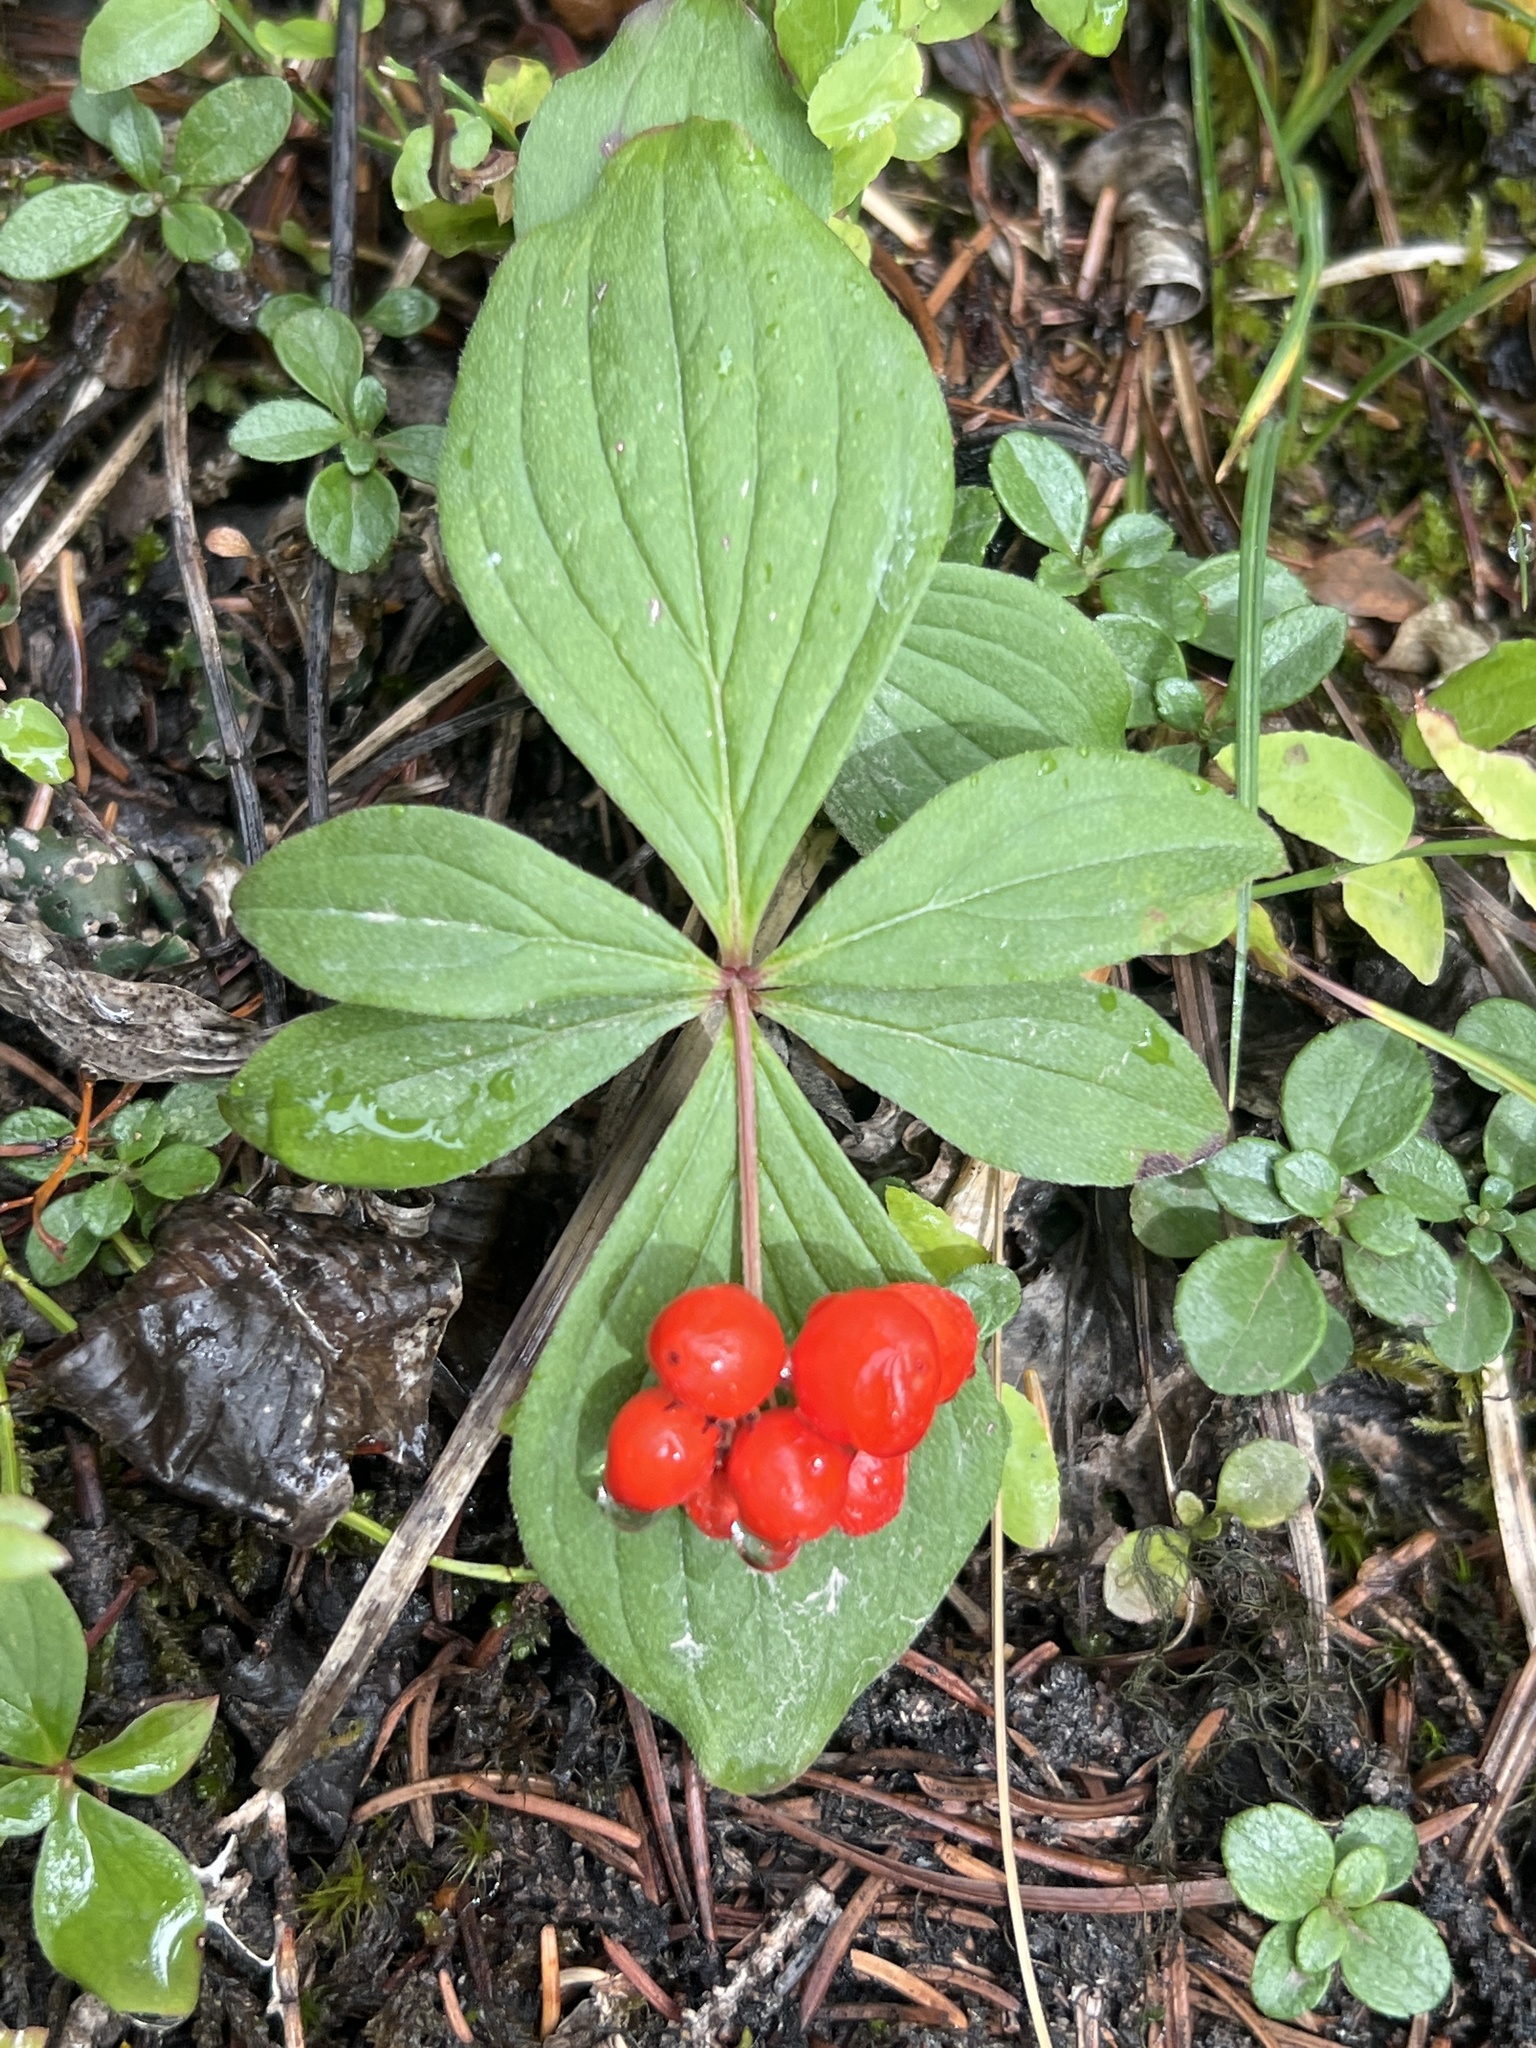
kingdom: Plantae
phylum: Tracheophyta
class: Magnoliopsida
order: Cornales
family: Cornaceae
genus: Cornus
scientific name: Cornus canadensis
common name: Creeping dogwood
